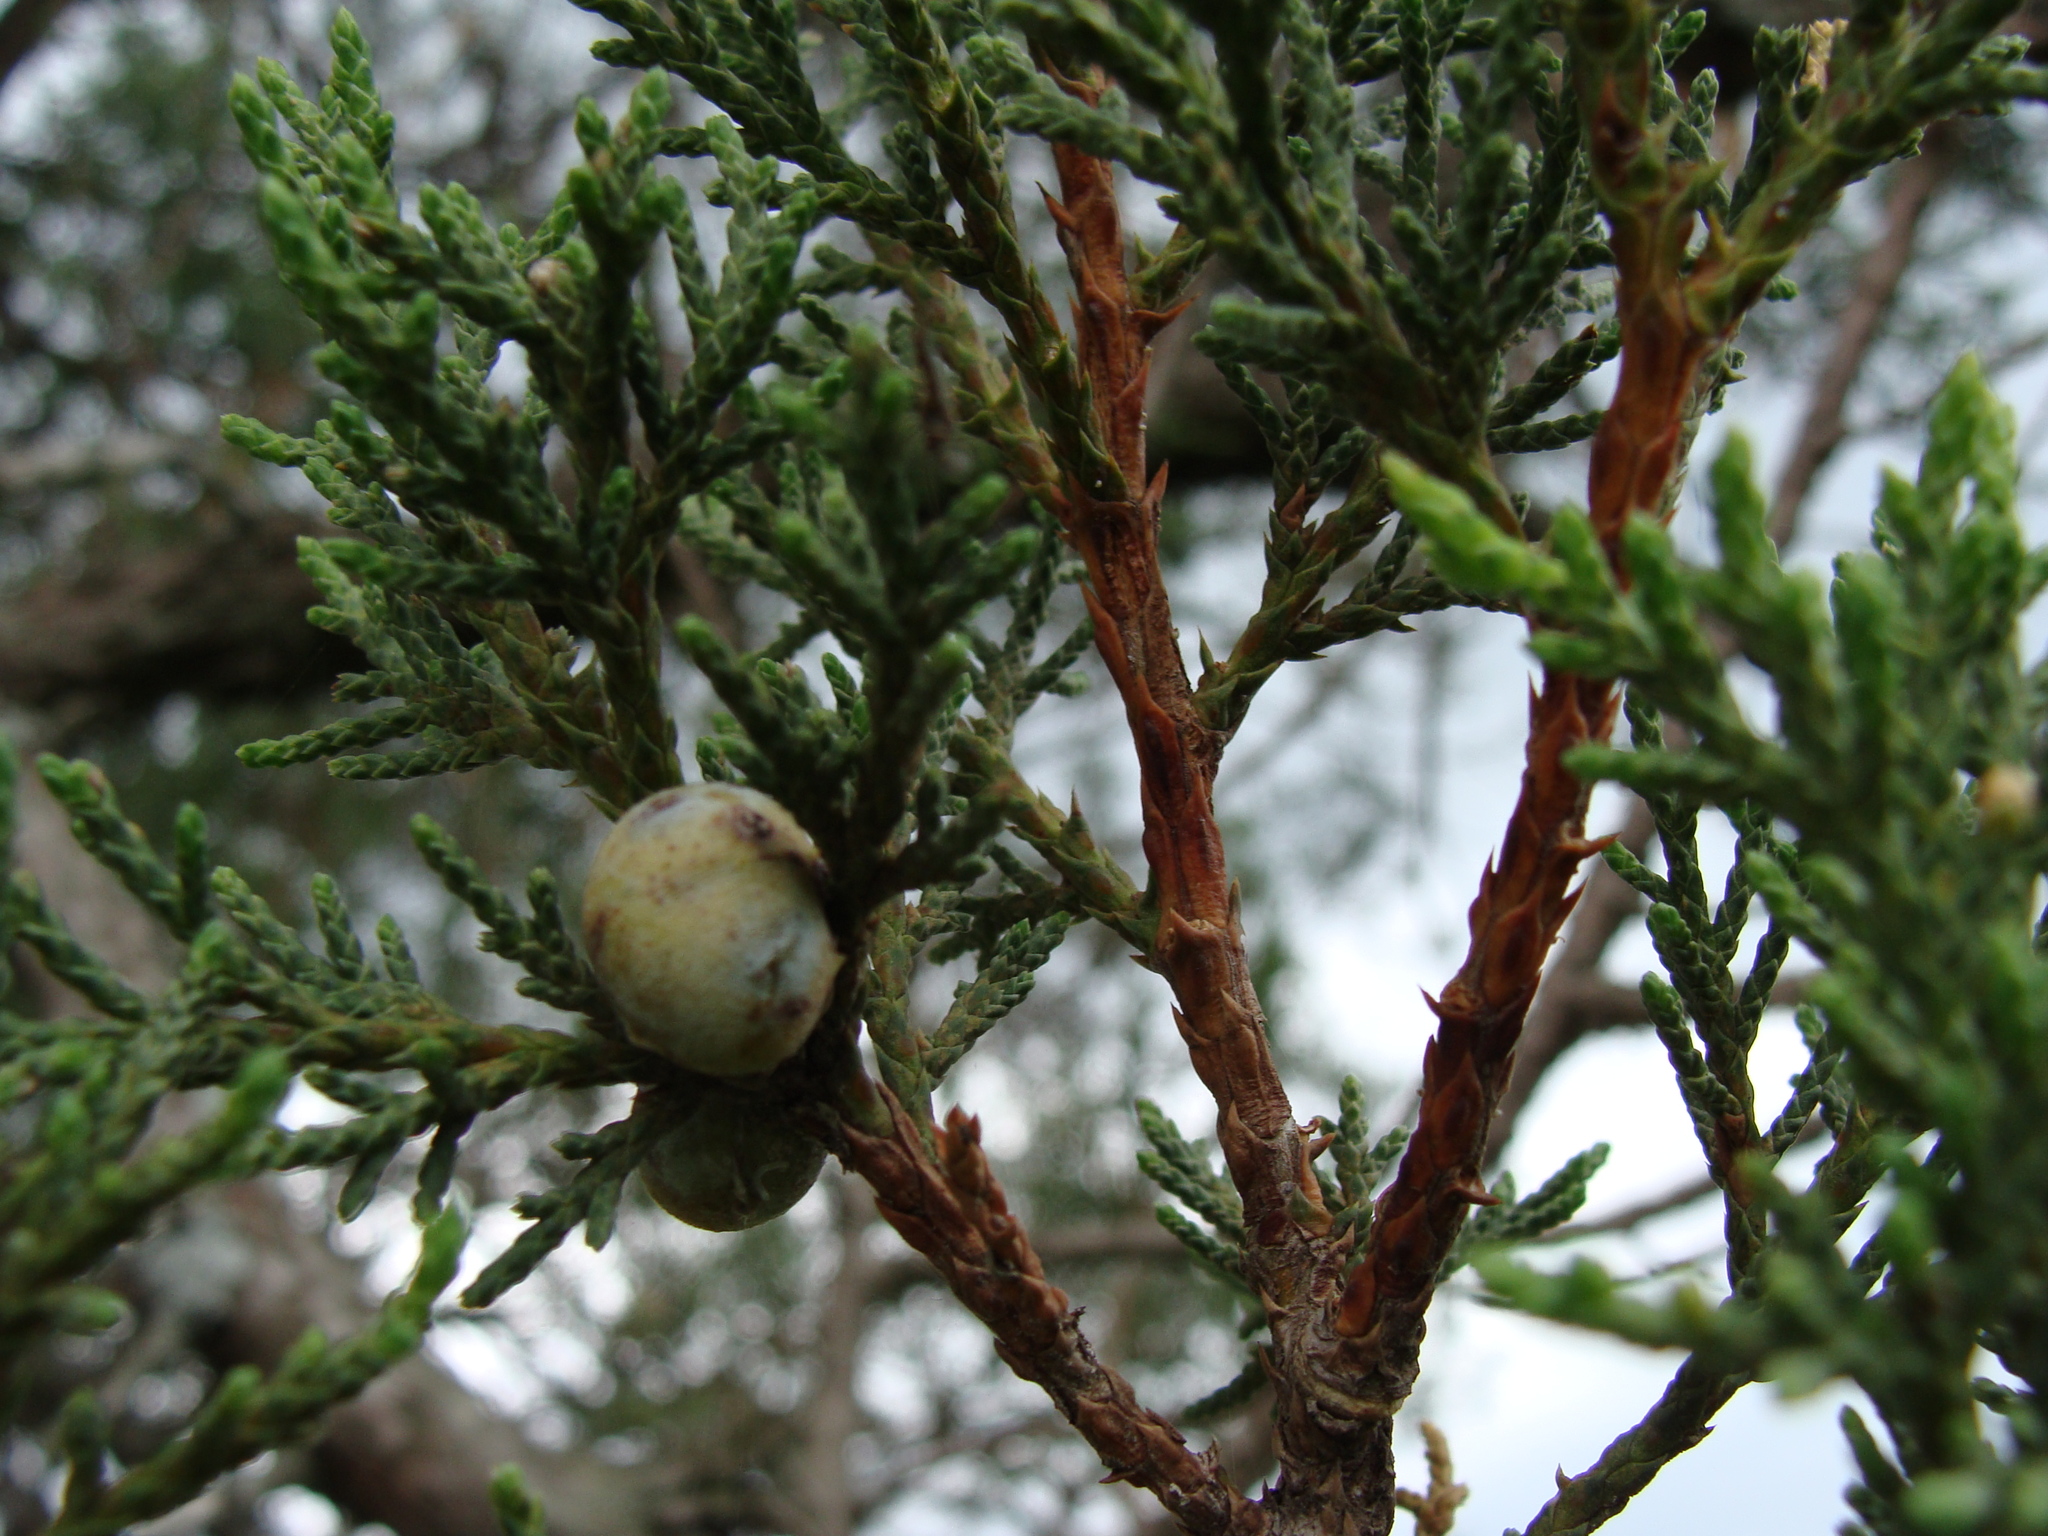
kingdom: Plantae
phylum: Tracheophyta
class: Pinopsida
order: Pinales
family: Cupressaceae
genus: Juniperus
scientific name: Juniperus deppeana
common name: Alligator juniper
